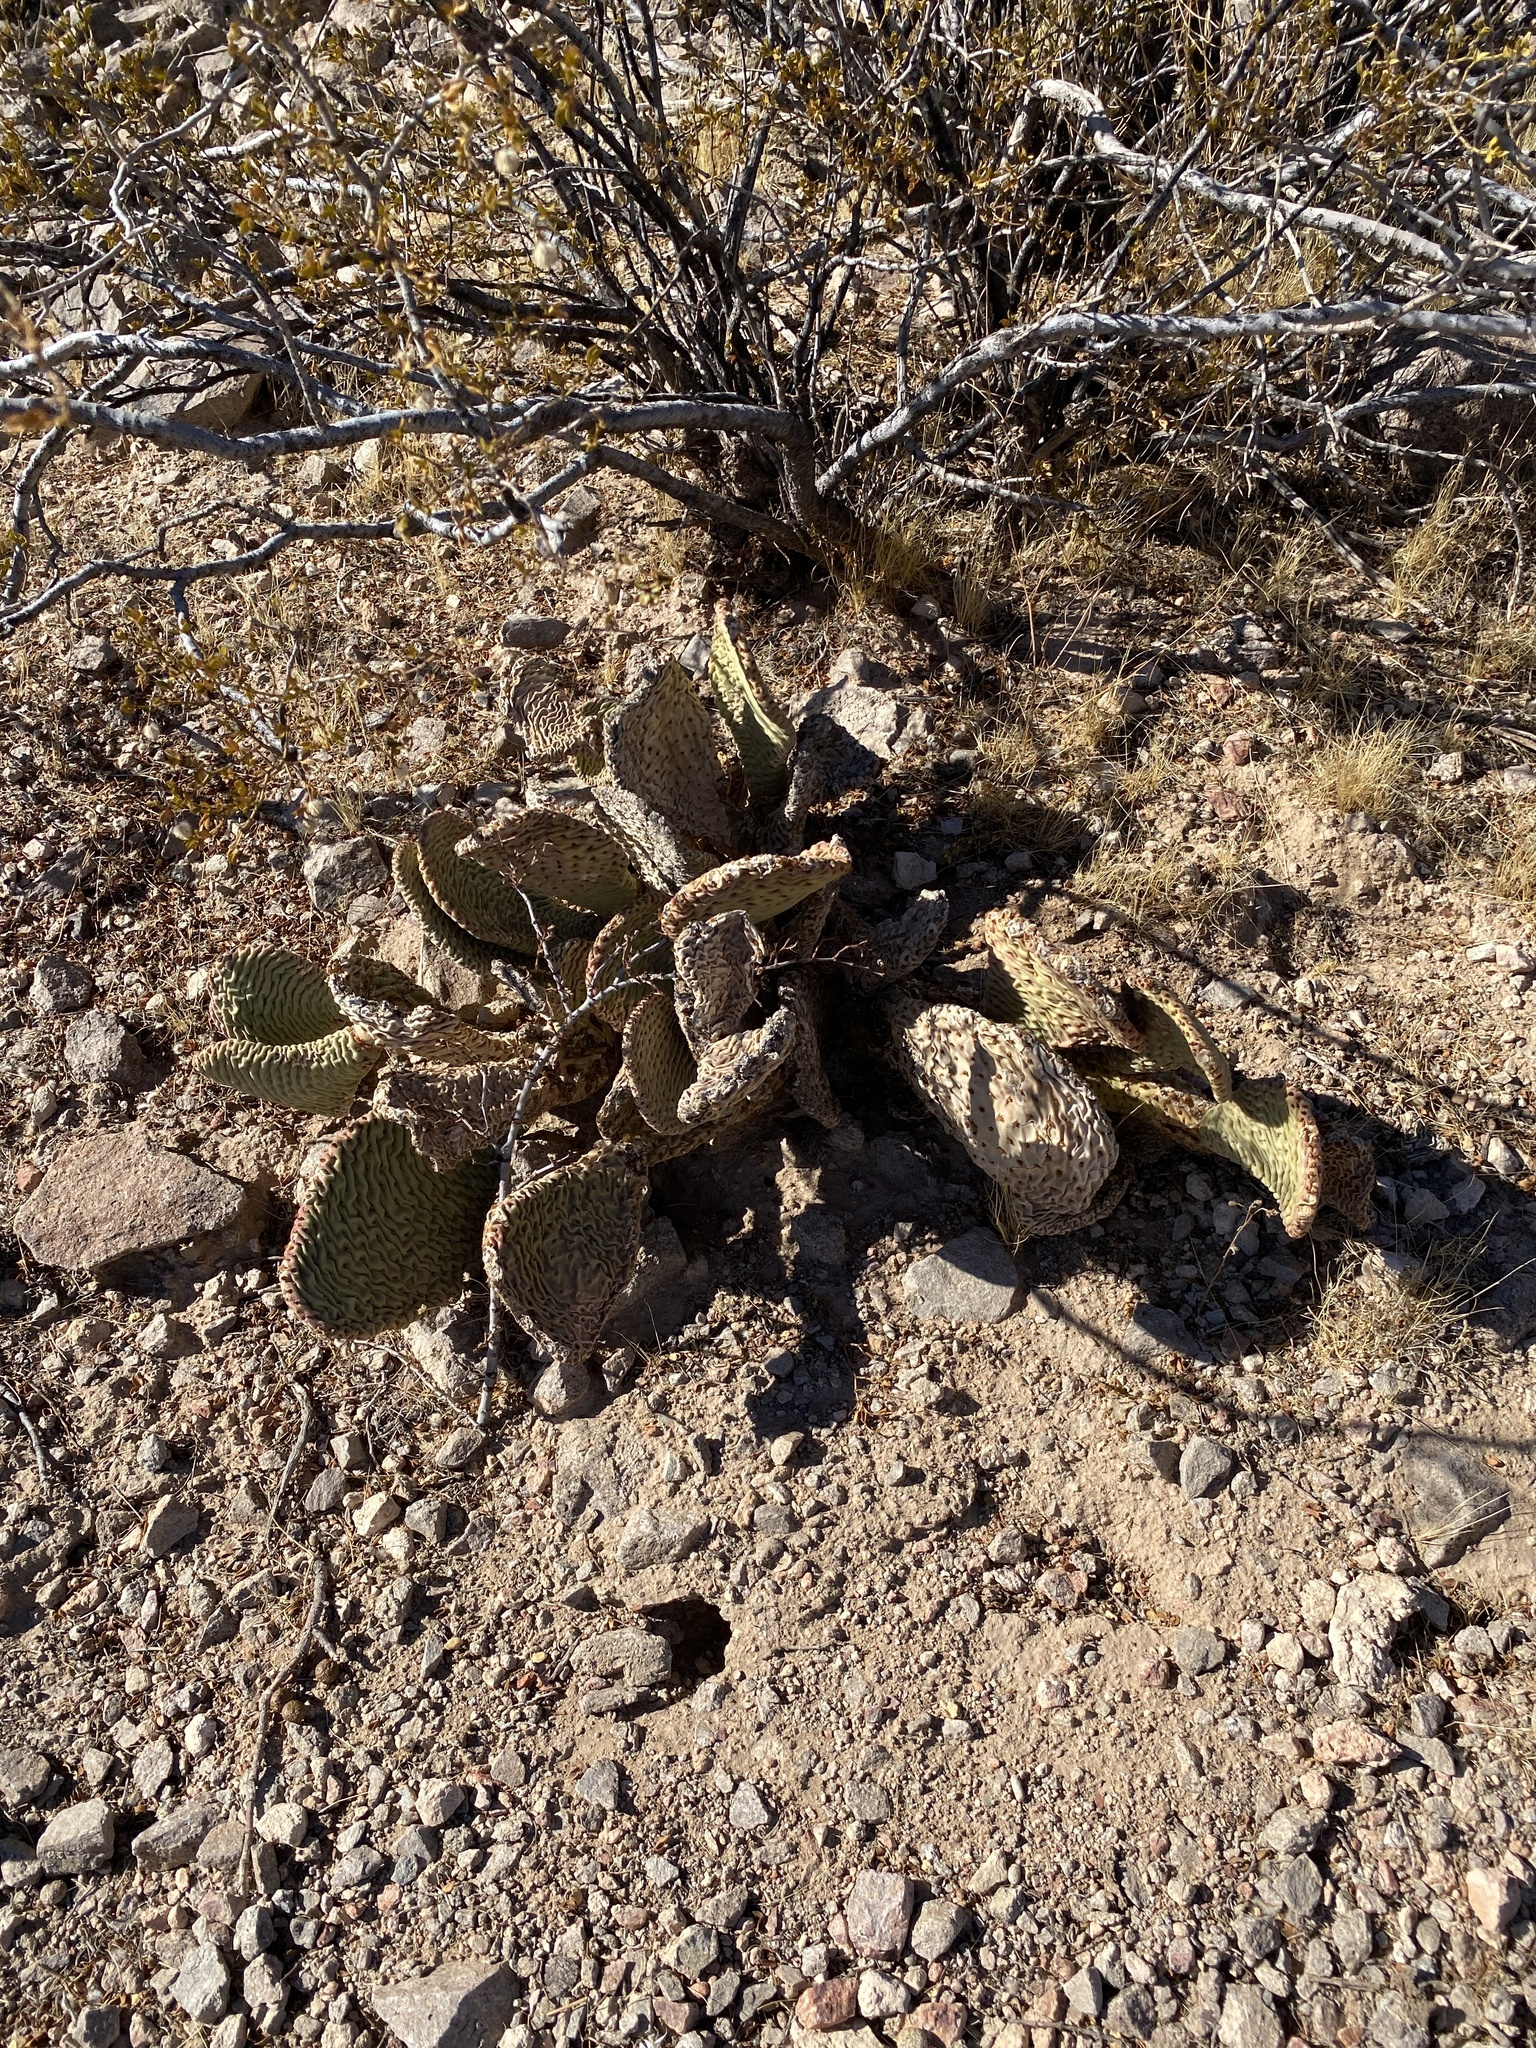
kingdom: Plantae
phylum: Tracheophyta
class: Magnoliopsida
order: Caryophyllales
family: Cactaceae
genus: Opuntia
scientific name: Opuntia basilaris
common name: Beavertail prickly-pear
